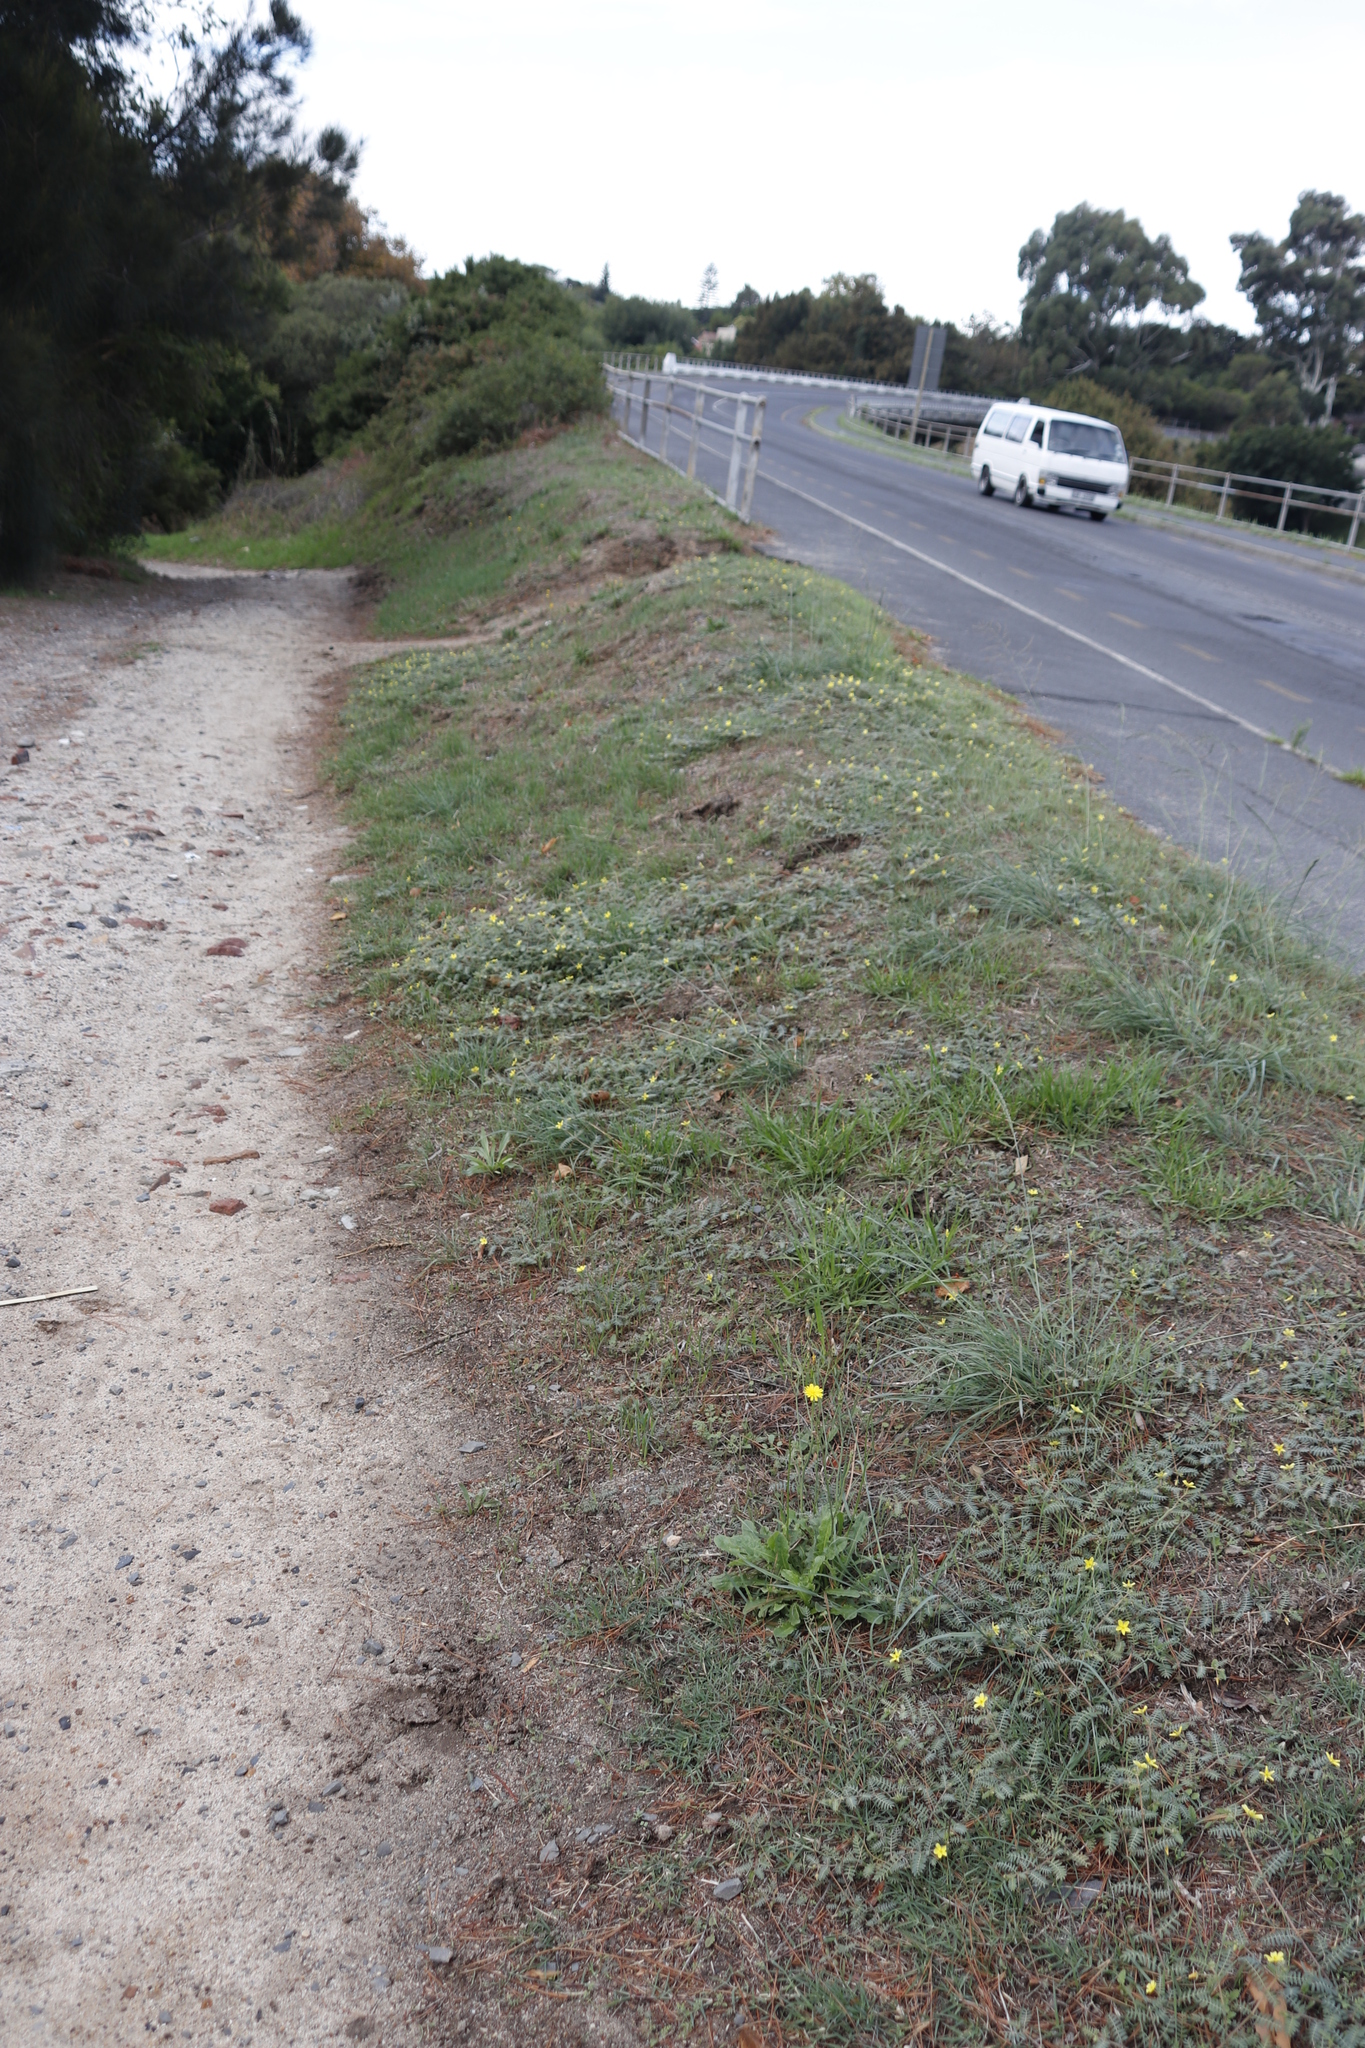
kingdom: Plantae
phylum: Tracheophyta
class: Magnoliopsida
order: Zygophyllales
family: Zygophyllaceae
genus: Tribulus
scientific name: Tribulus terrestris
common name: Puncturevine
